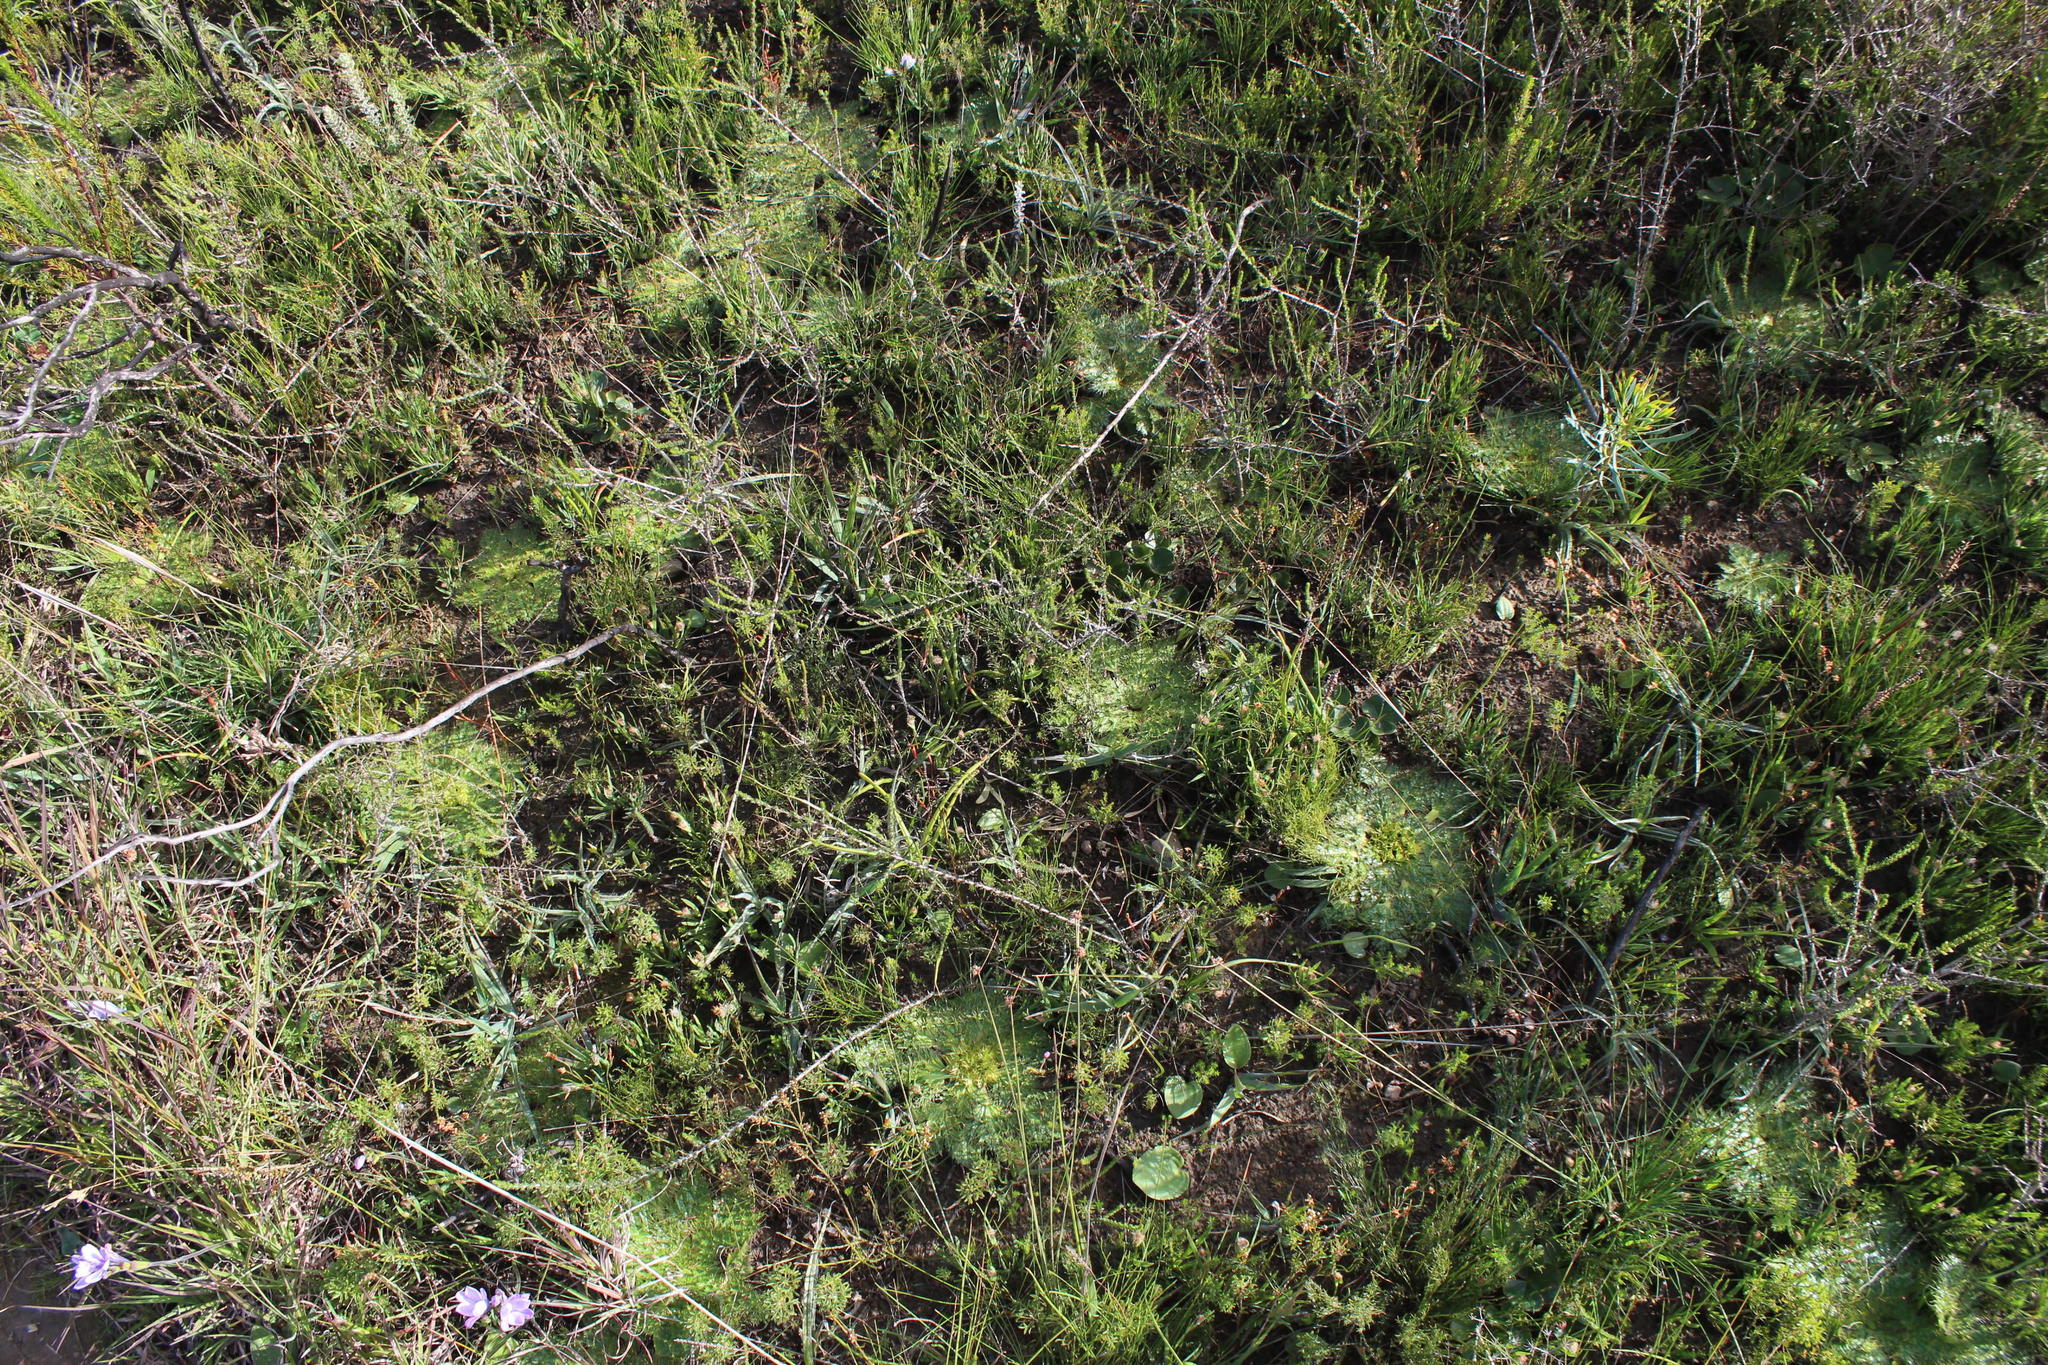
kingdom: Plantae
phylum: Tracheophyta
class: Magnoliopsida
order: Apiales
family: Apiaceae
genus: Arctopus
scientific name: Arctopus echinatus
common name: Platdoring
